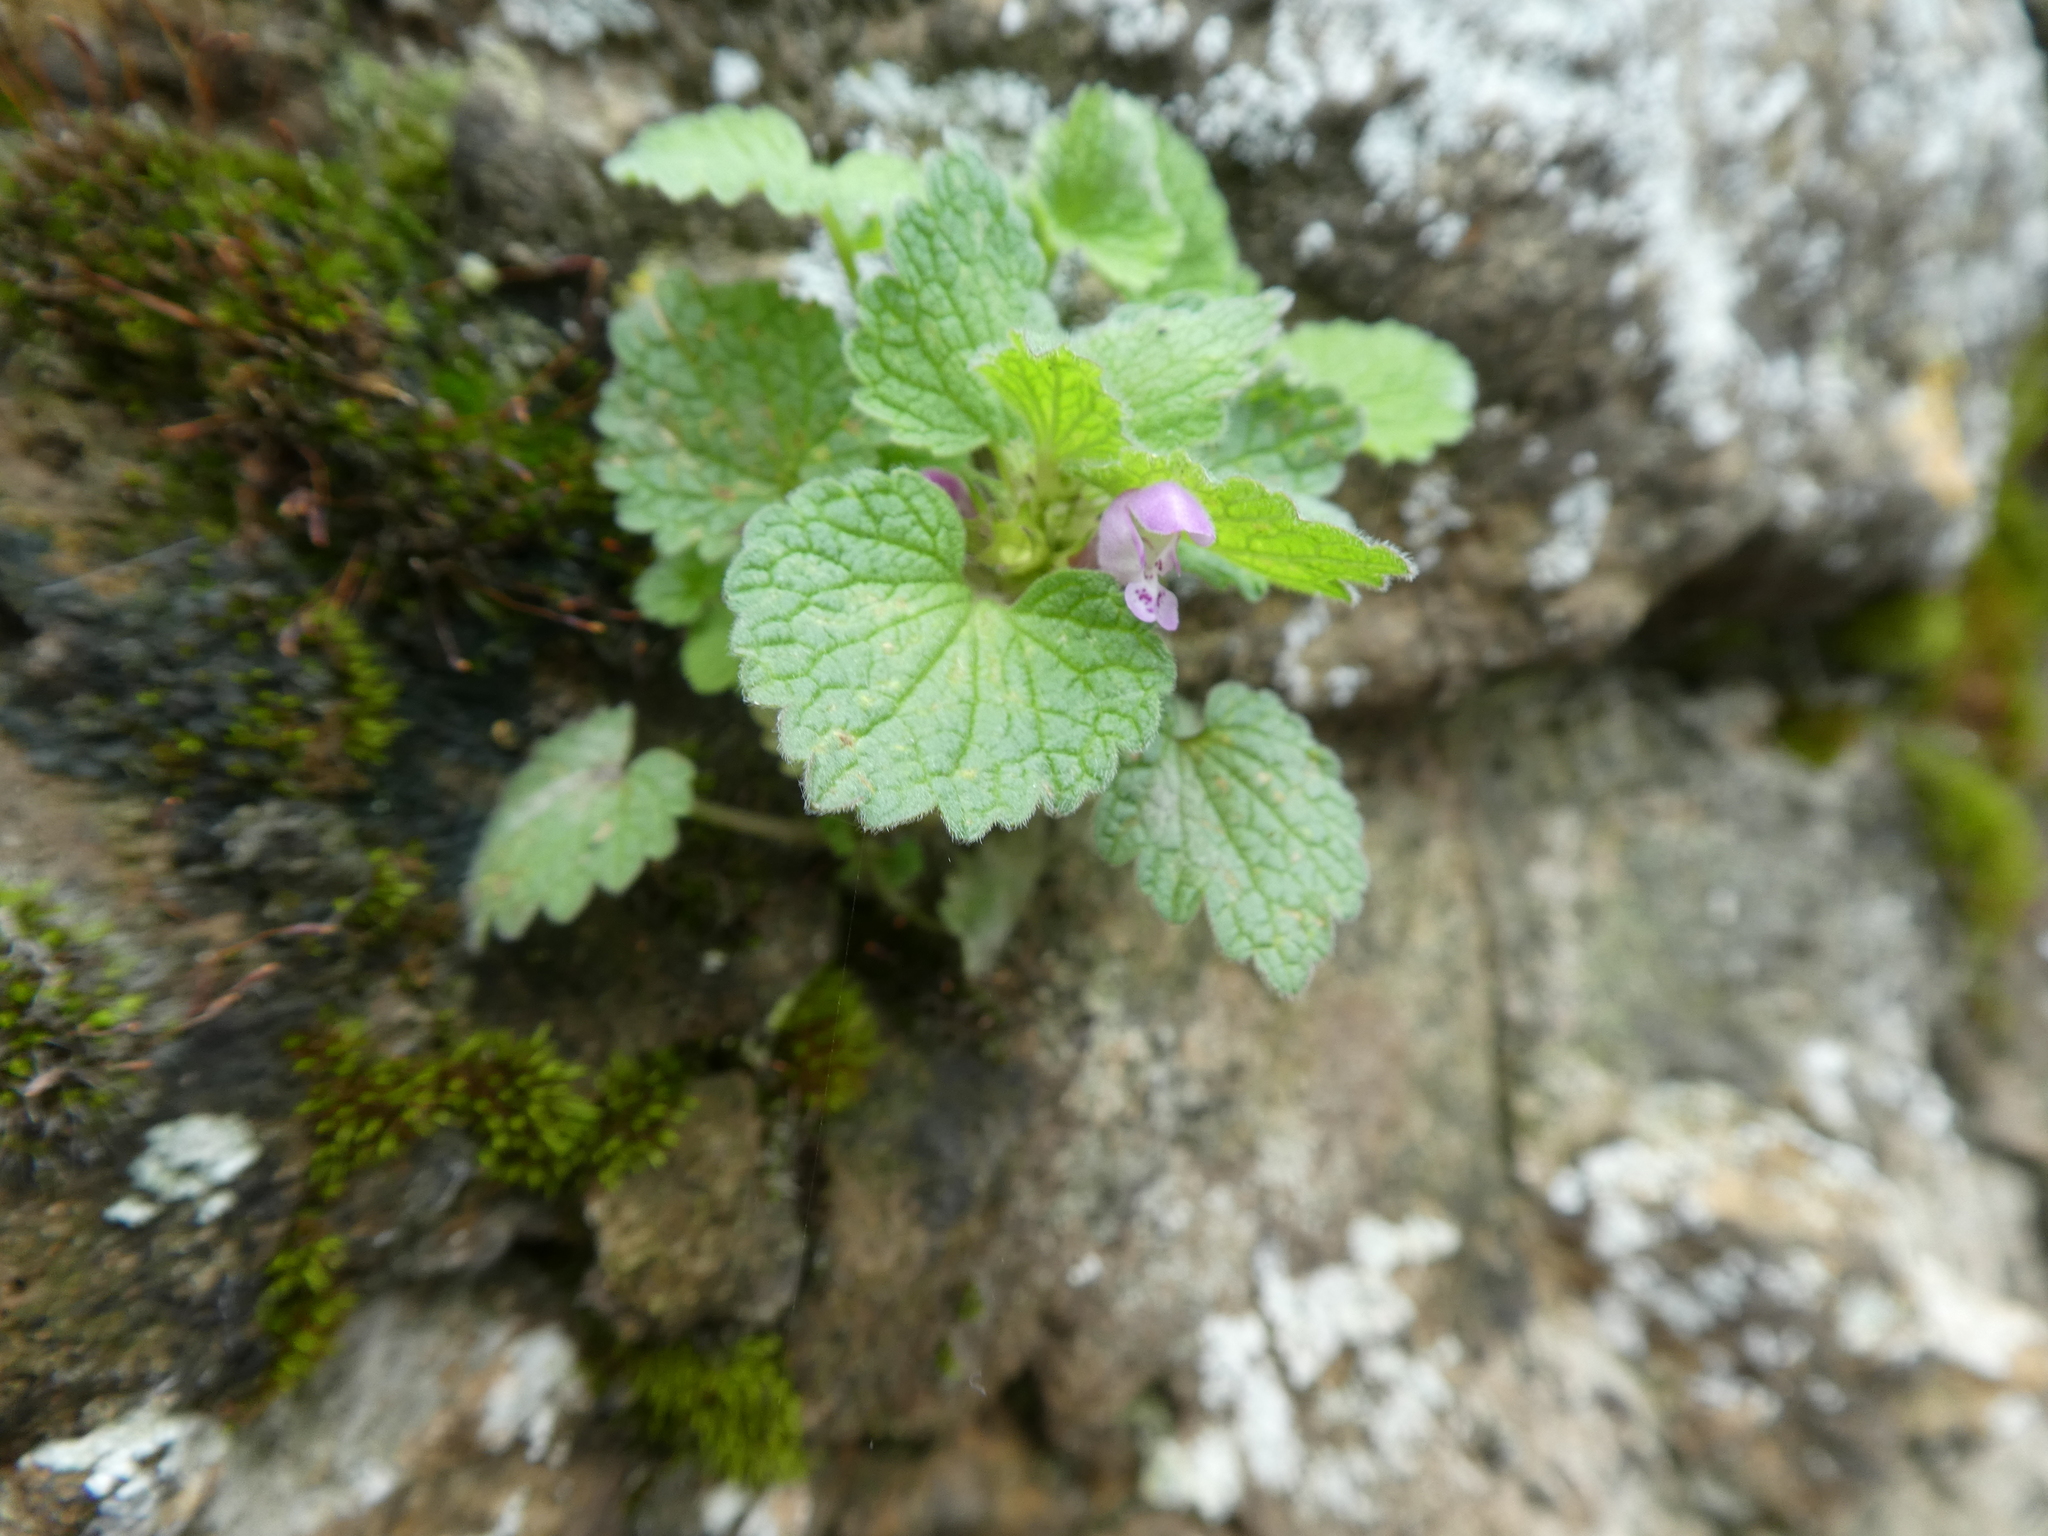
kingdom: Plantae
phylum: Tracheophyta
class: Magnoliopsida
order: Lamiales
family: Lamiaceae
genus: Lamium
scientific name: Lamium purpureum
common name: Red dead-nettle
